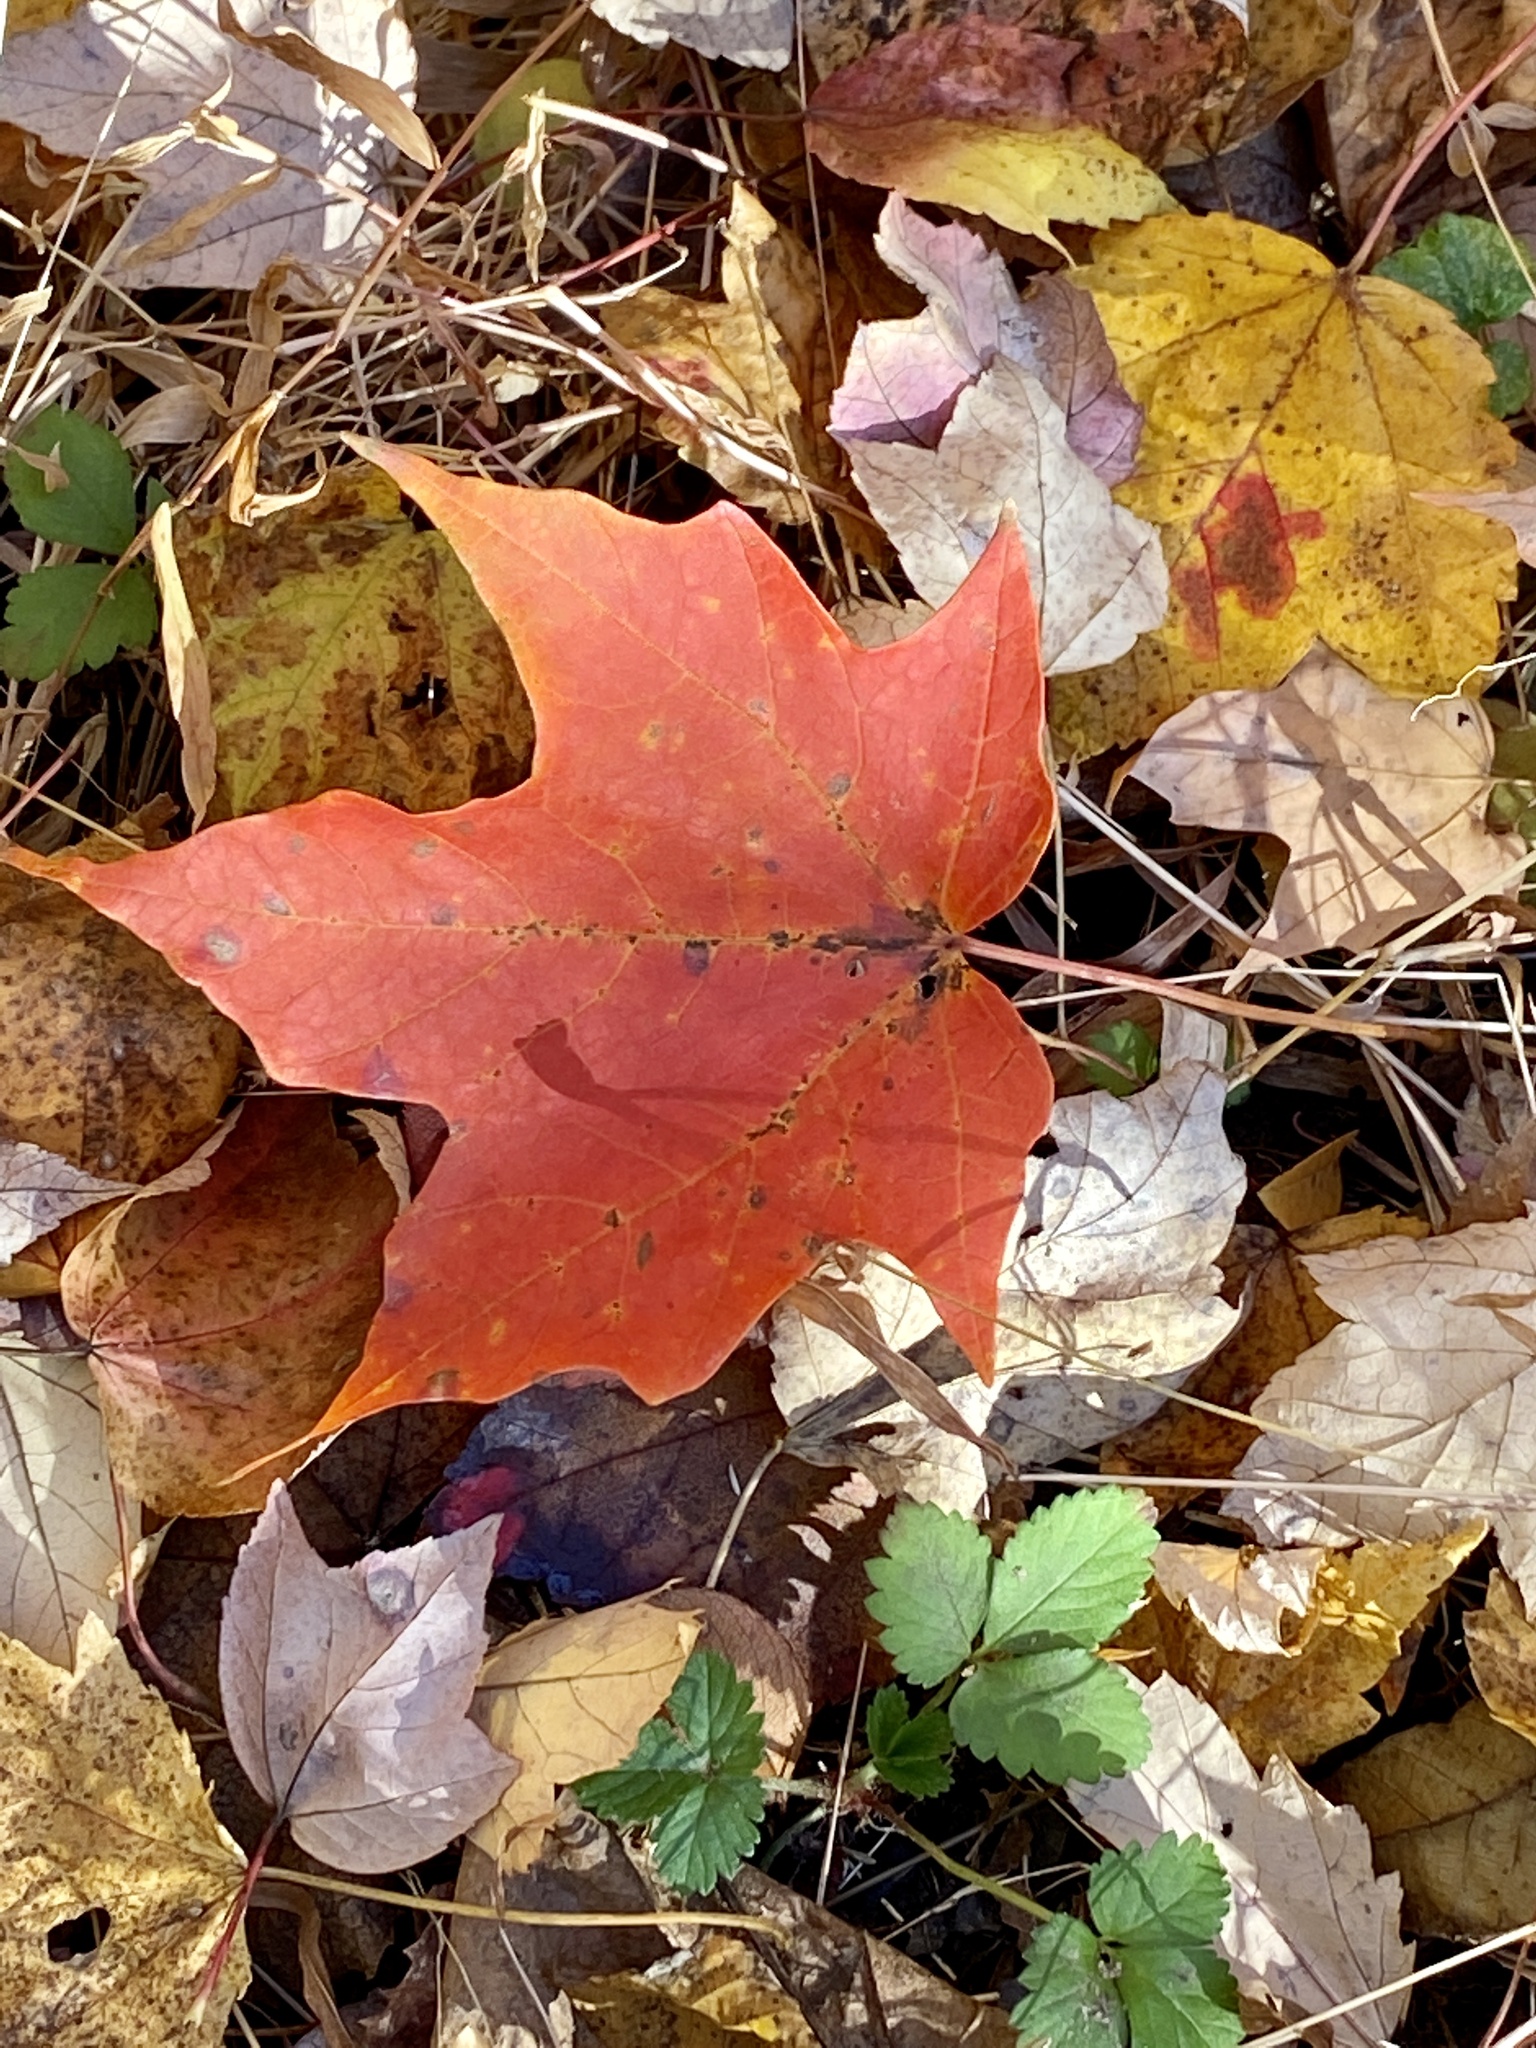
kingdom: Plantae
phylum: Tracheophyta
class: Magnoliopsida
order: Sapindales
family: Sapindaceae
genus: Acer
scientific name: Acer saccharum
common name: Sugar maple
